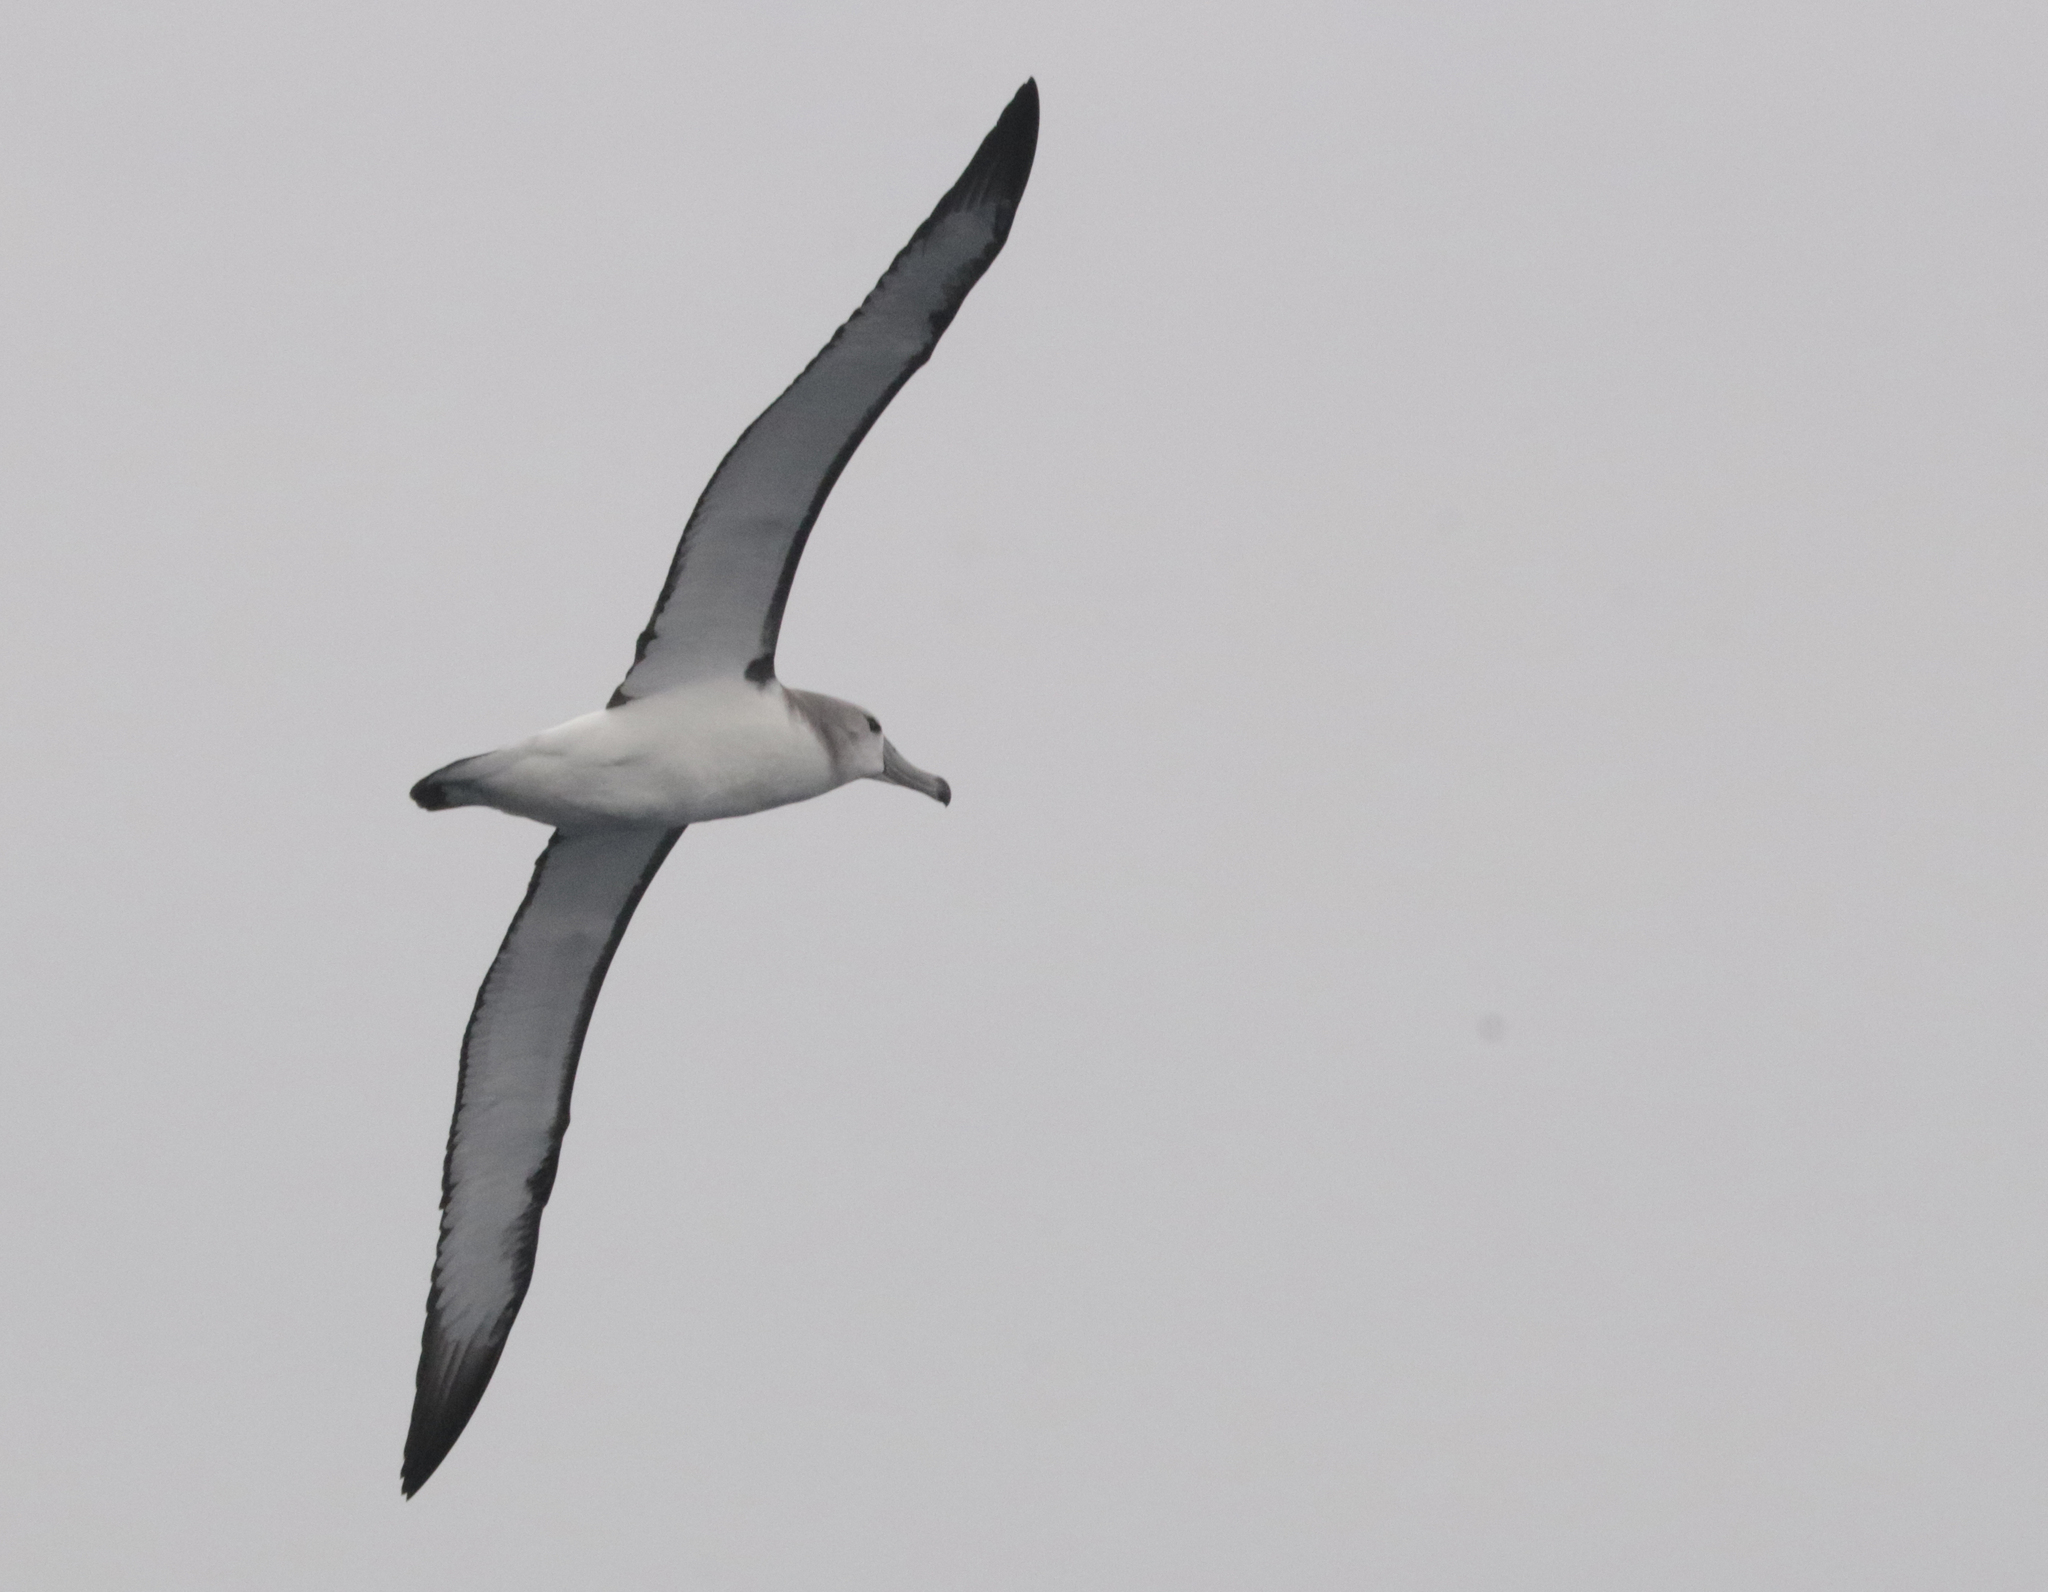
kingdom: Animalia
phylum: Chordata
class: Aves
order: Procellariiformes
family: Diomedeidae
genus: Thalassarche
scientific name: Thalassarche cauta
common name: Shy albatross
